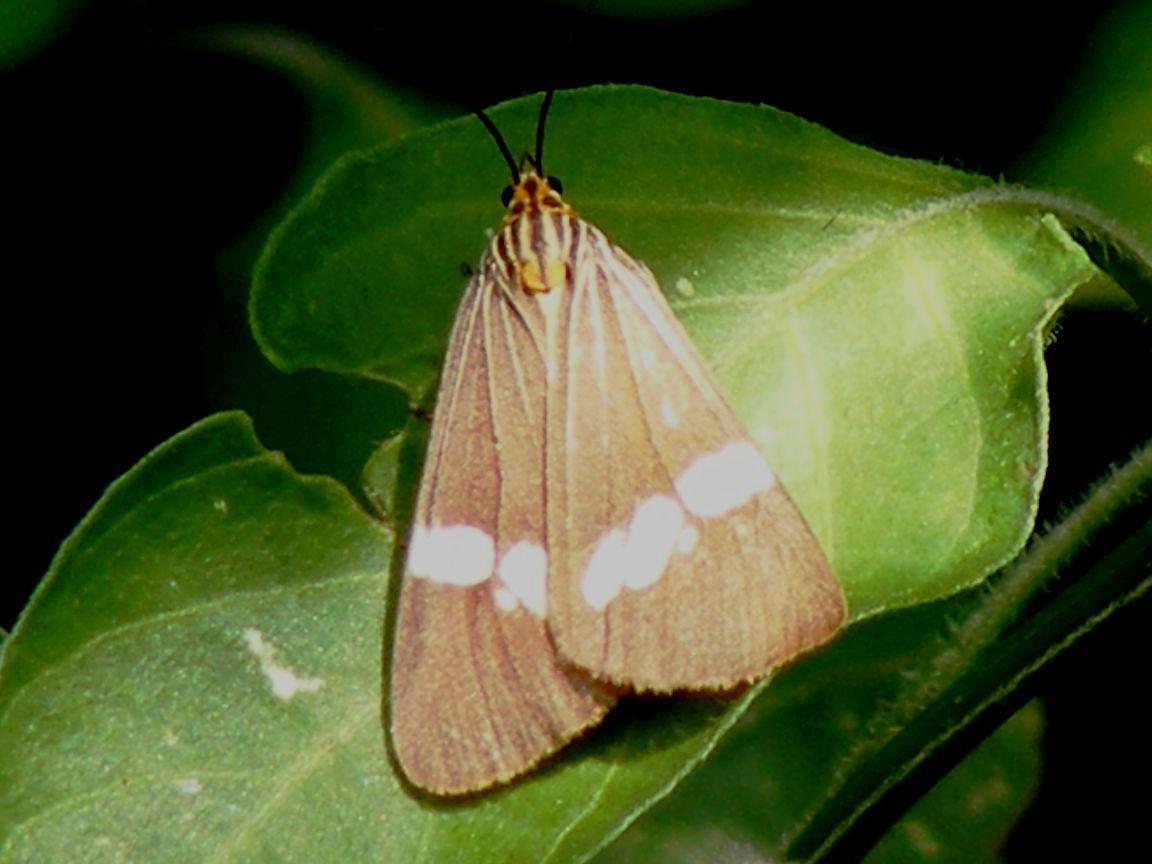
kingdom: Animalia
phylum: Arthropoda
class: Insecta
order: Lepidoptera
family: Erebidae
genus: Secusio
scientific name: Secusio strigata
